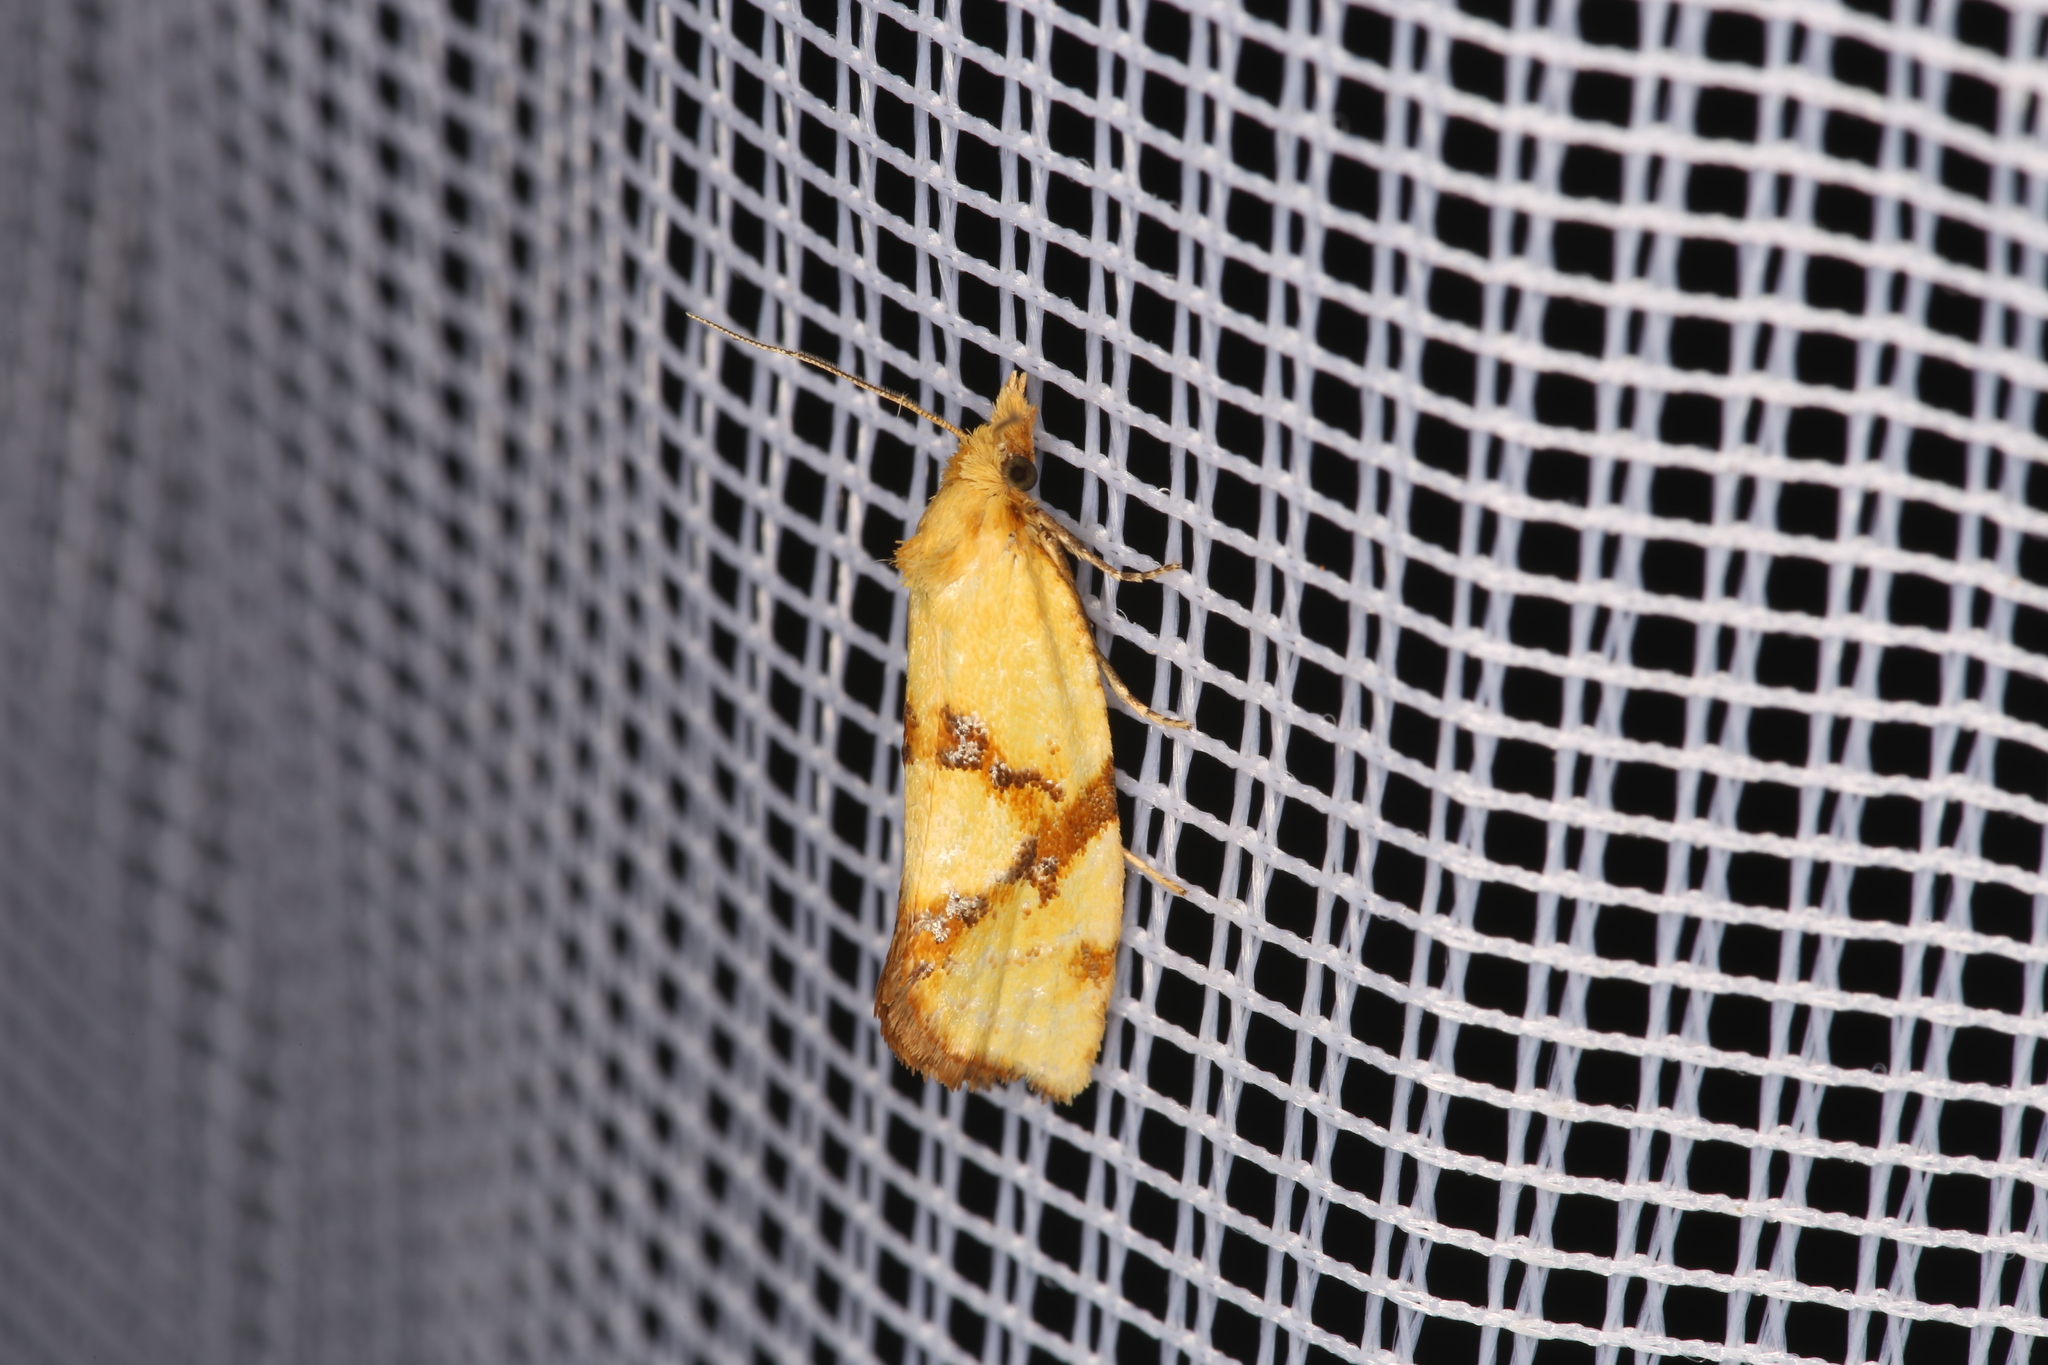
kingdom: Animalia
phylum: Arthropoda
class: Insecta
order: Lepidoptera
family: Tortricidae
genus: Fulvoclysia
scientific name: Fulvoclysia nerminae
